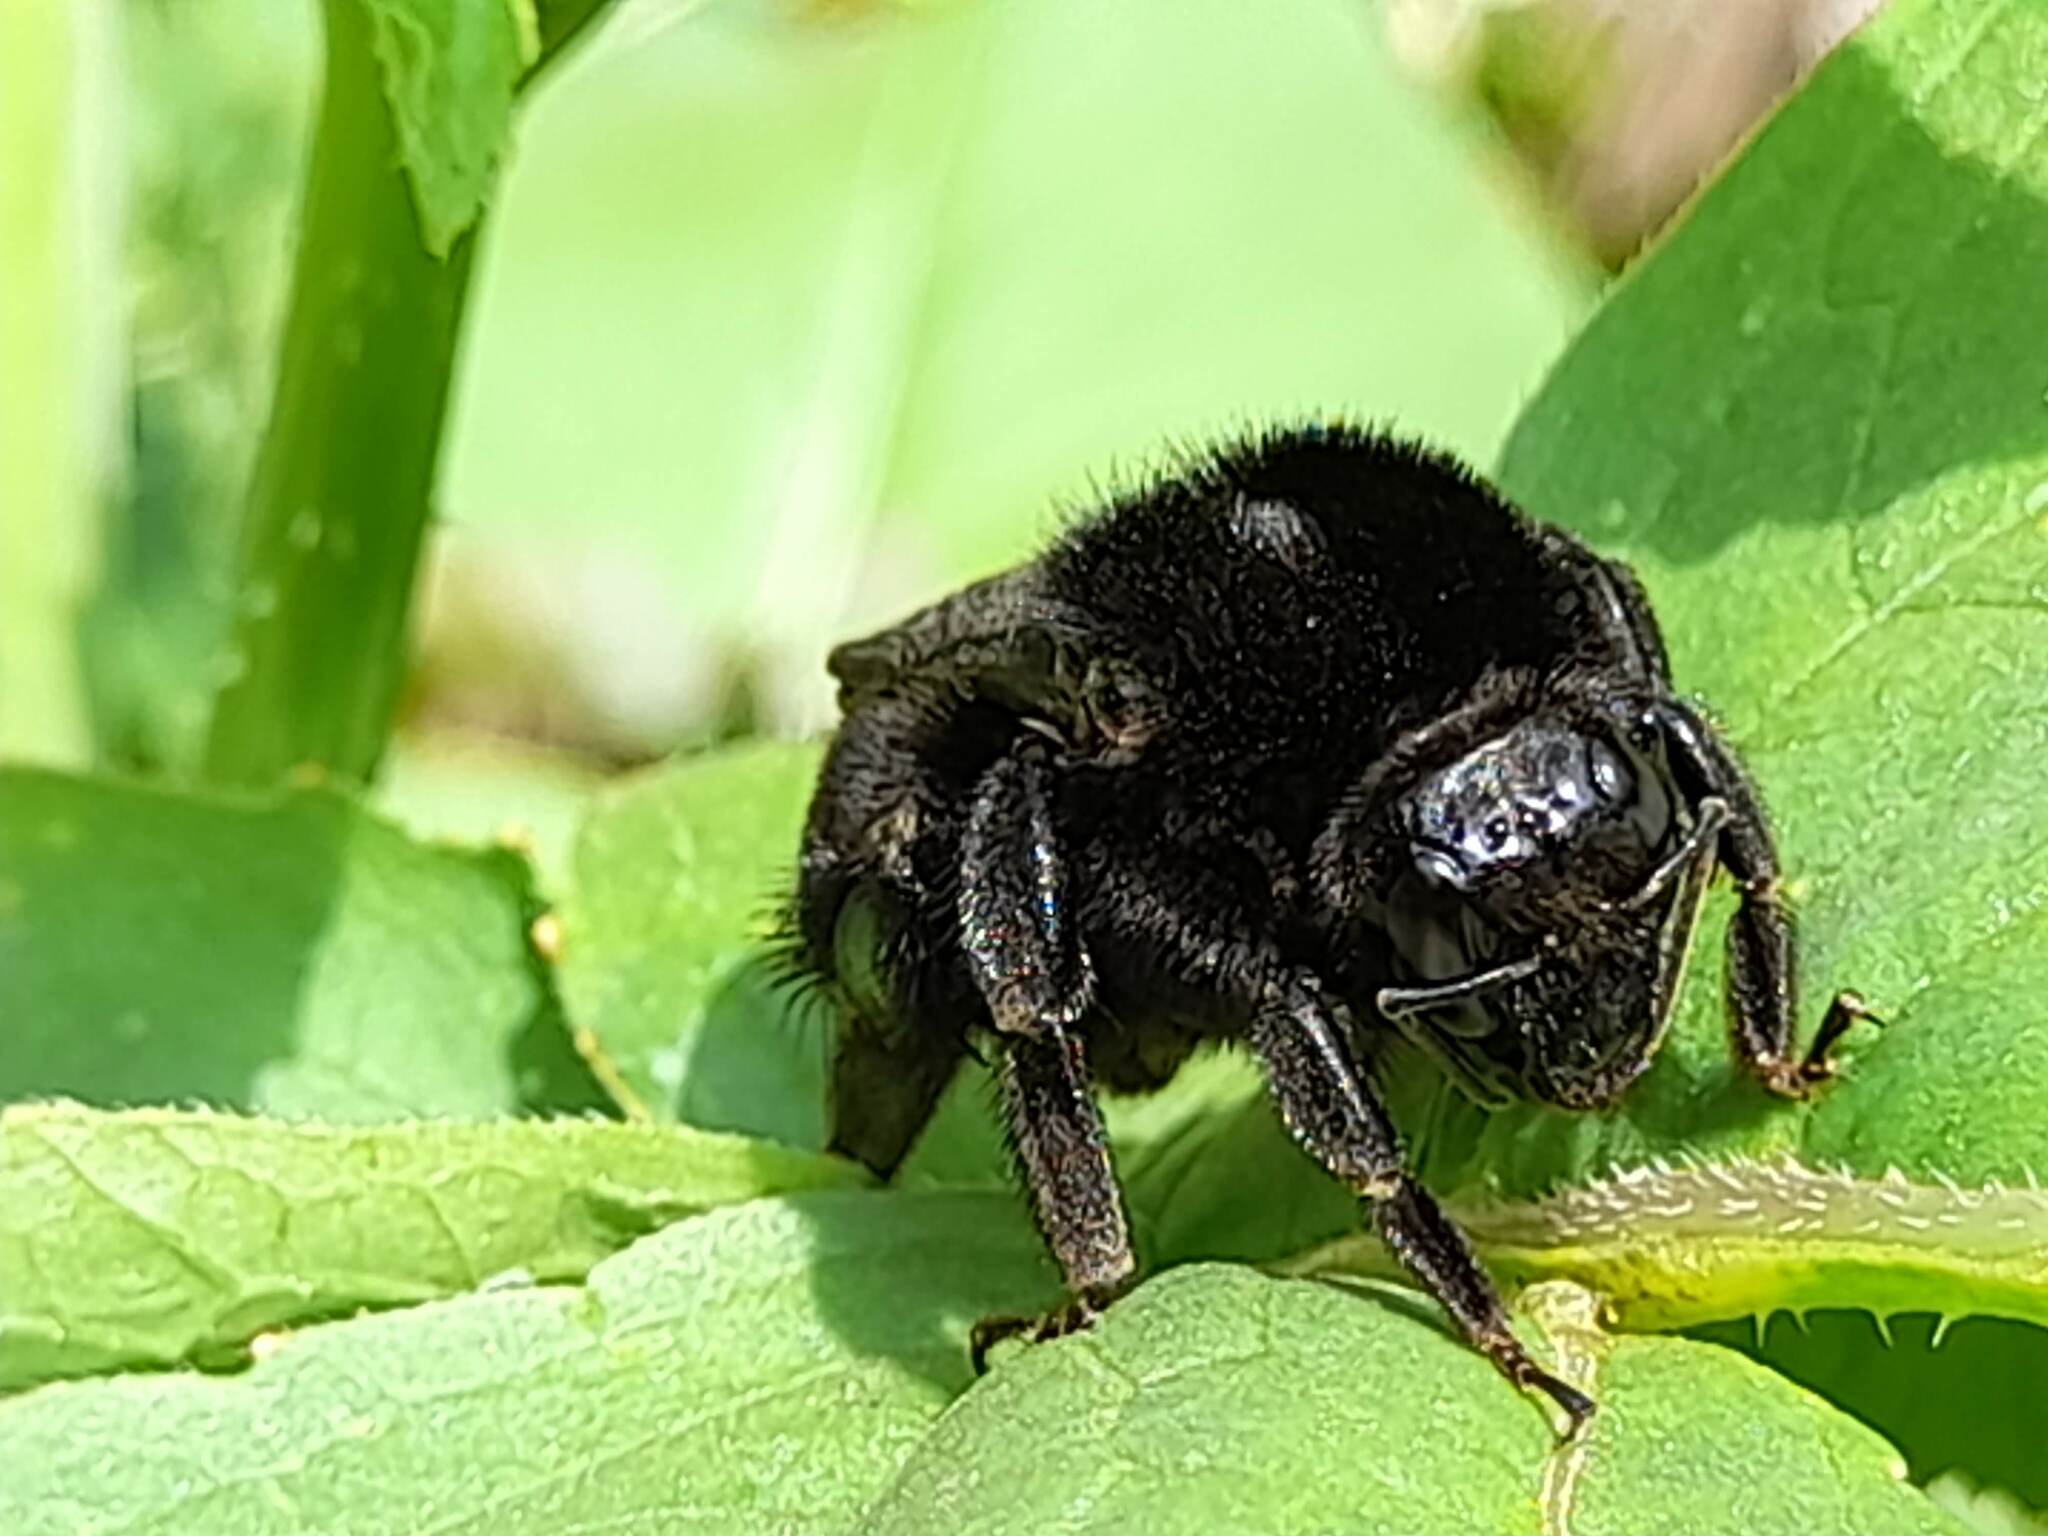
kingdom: Animalia
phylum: Arthropoda
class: Insecta
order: Hymenoptera
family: Apidae
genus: Bombus
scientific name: Bombus pauloensis
